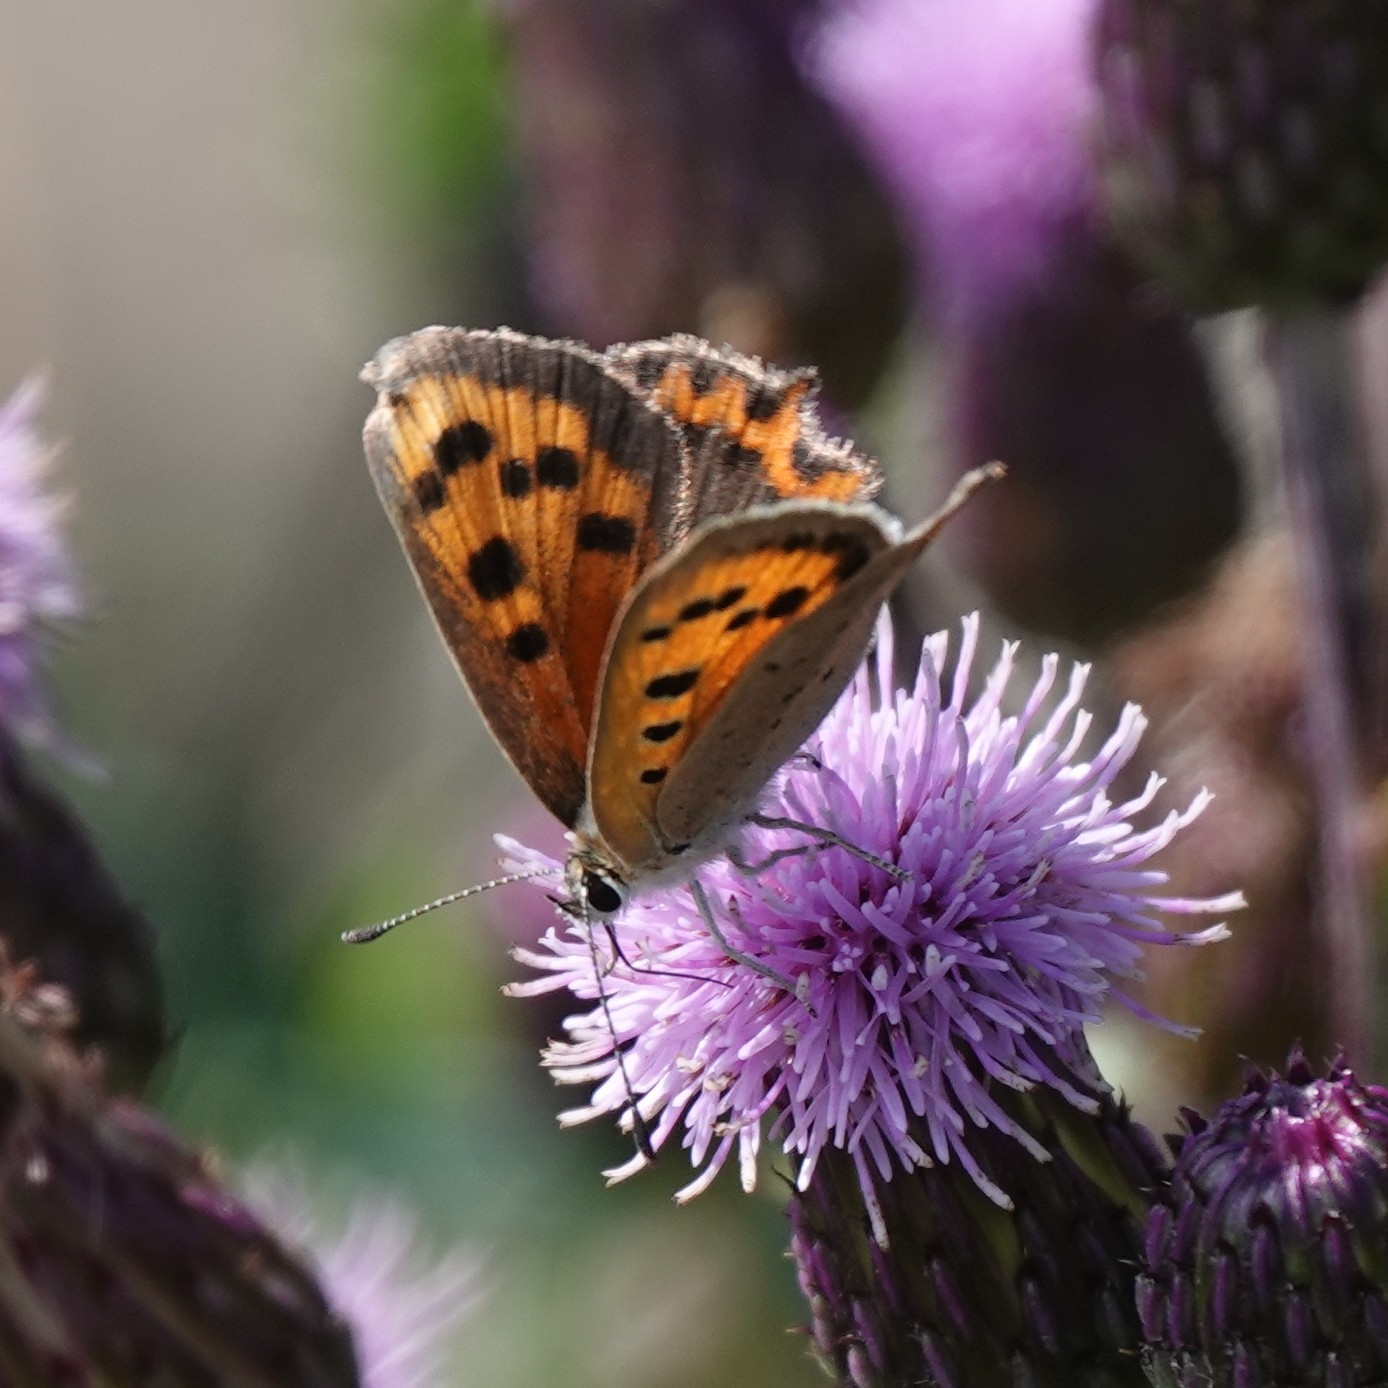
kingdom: Animalia
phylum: Arthropoda
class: Insecta
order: Lepidoptera
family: Lycaenidae
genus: Lycaena
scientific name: Lycaena phlaeas
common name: Small copper
